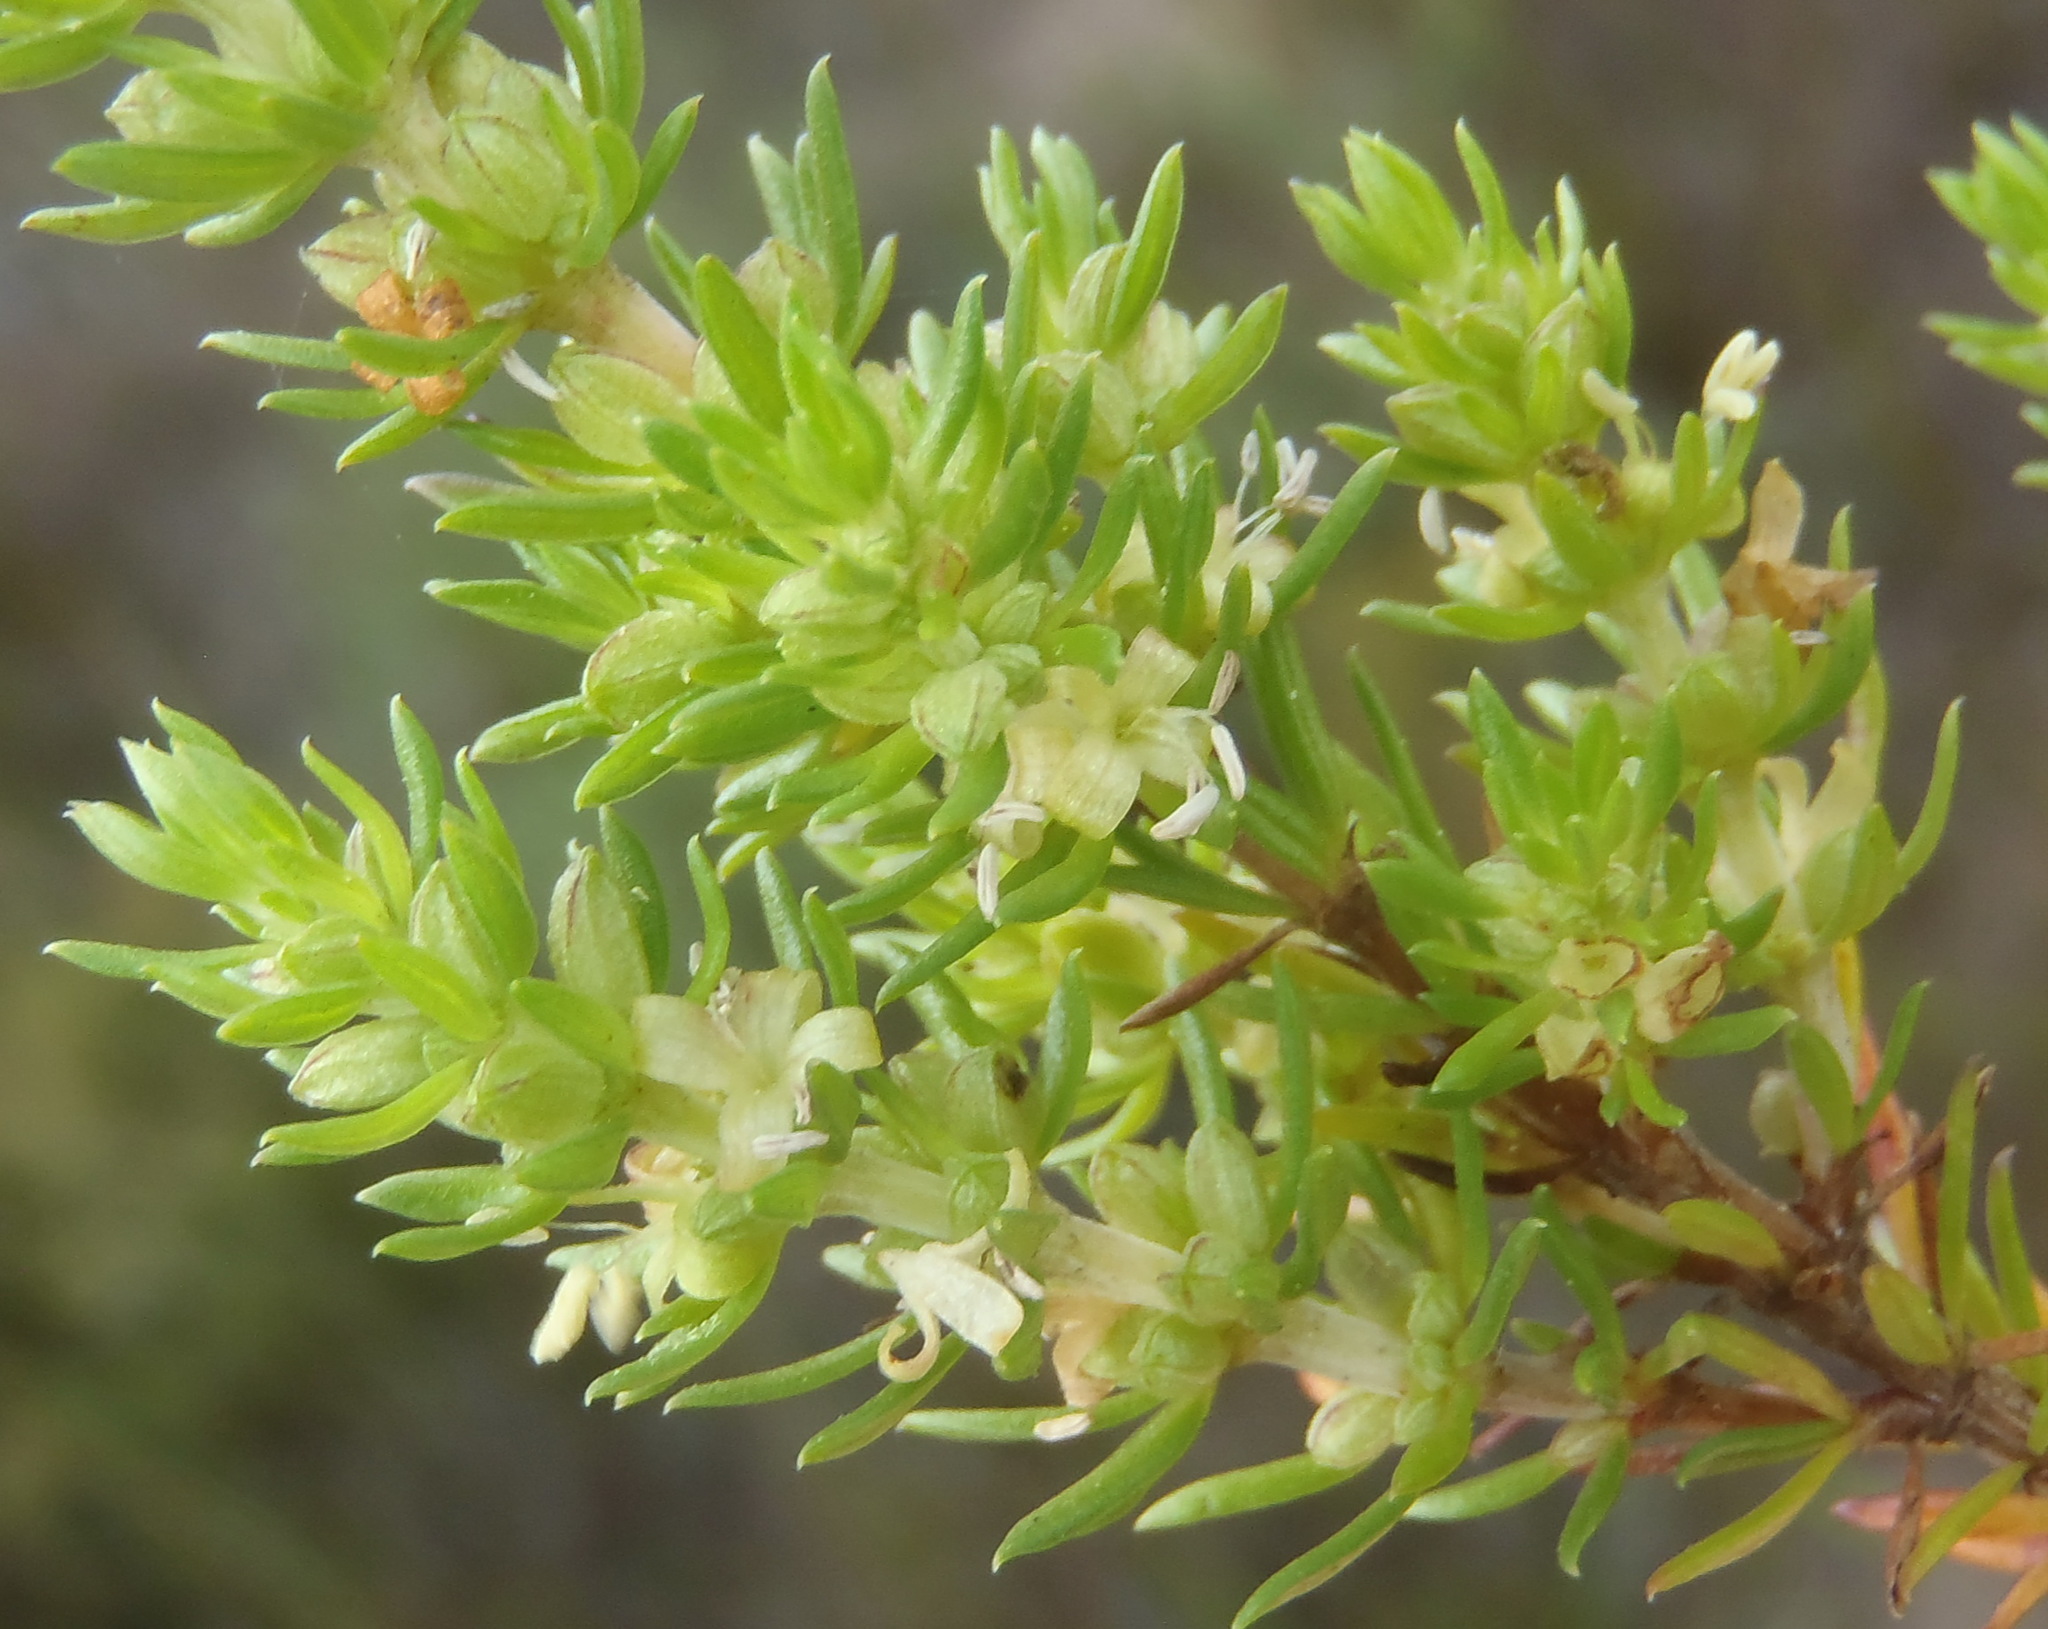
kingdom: Plantae
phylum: Tracheophyta
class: Magnoliopsida
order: Gentianales
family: Rubiaceae
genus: Anthospermum
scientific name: Anthospermum aethiopicum
